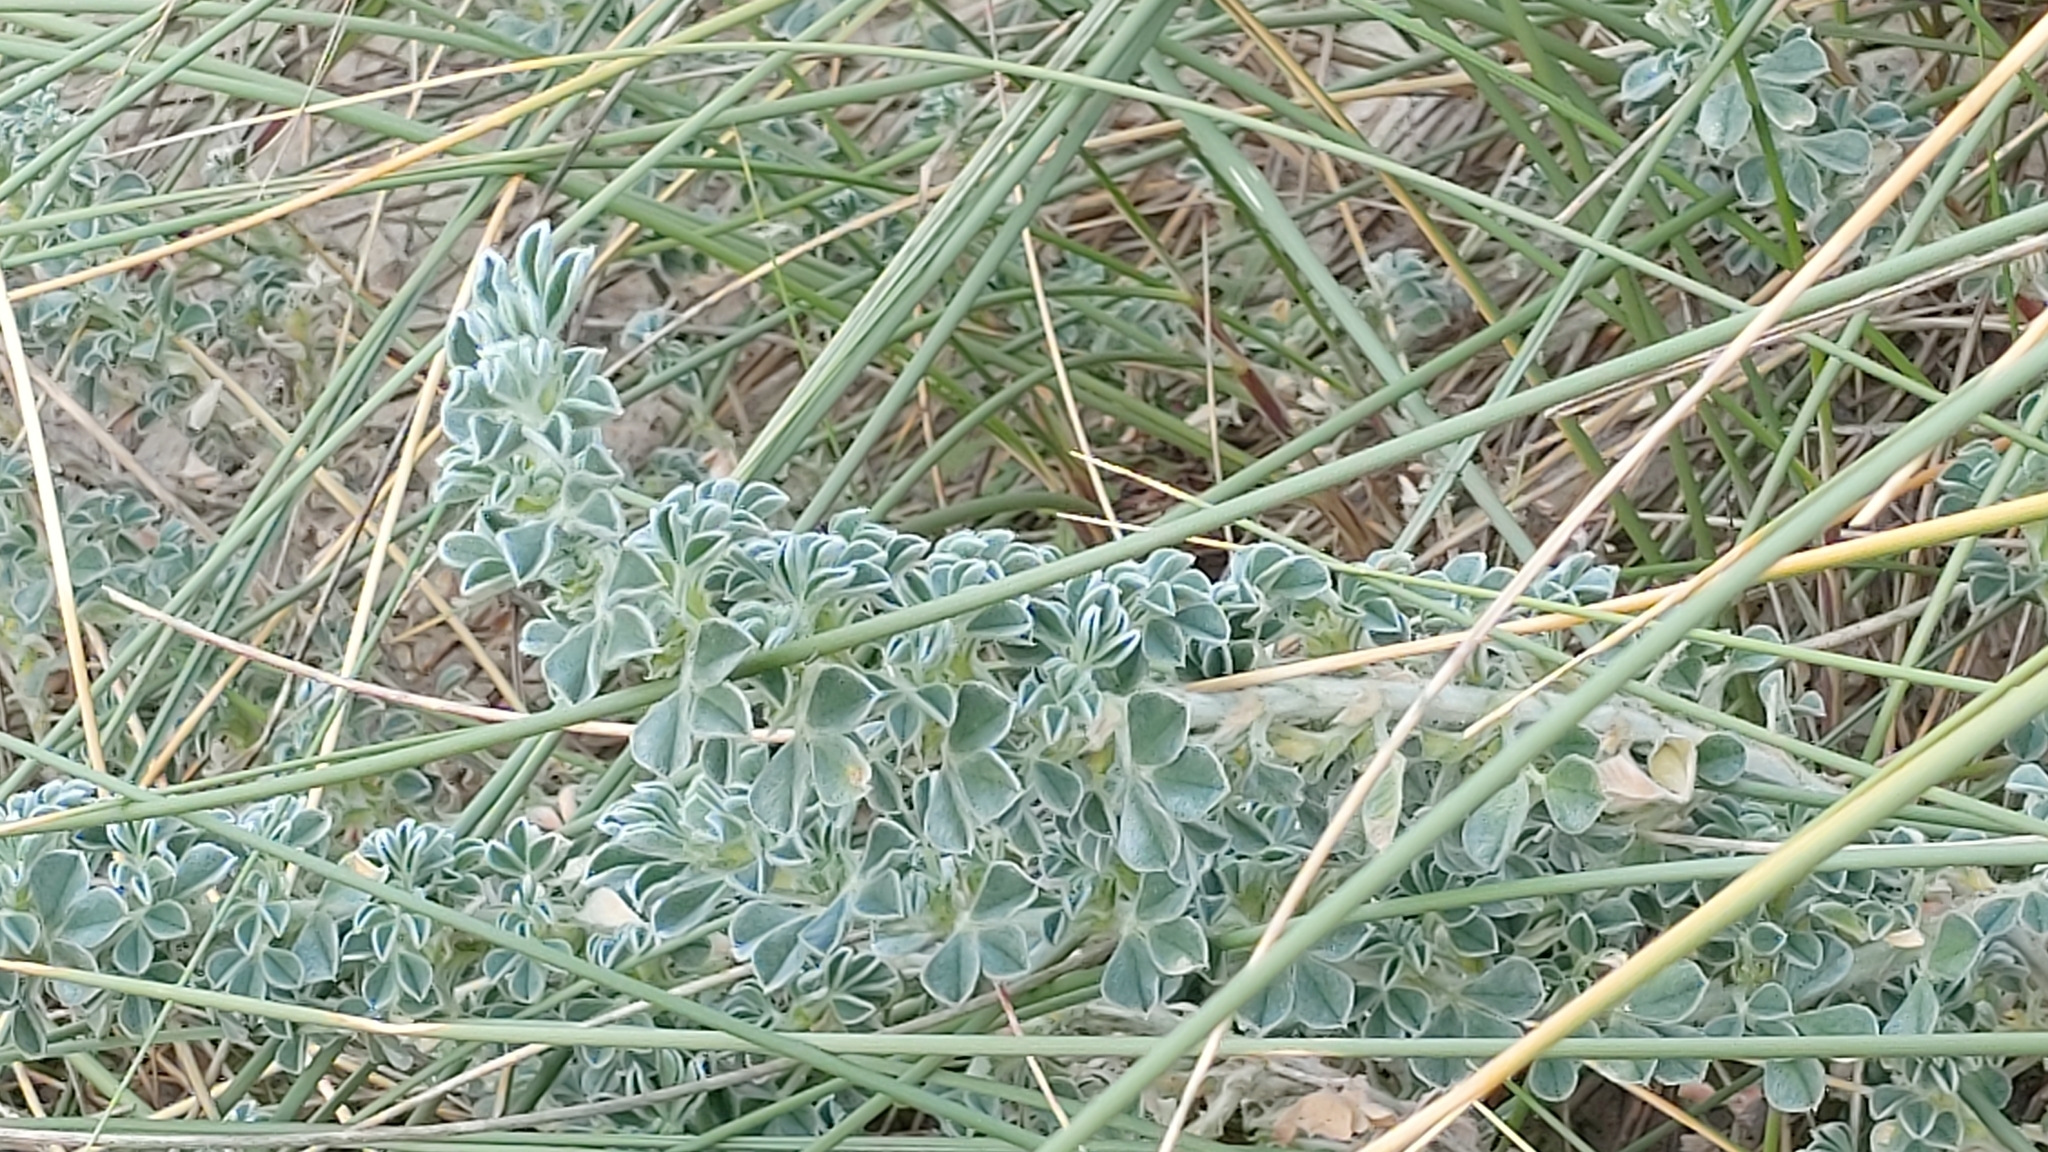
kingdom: Plantae
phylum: Tracheophyta
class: Magnoliopsida
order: Fabales
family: Fabaceae
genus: Medicago
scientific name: Medicago marina
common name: Sea medick
